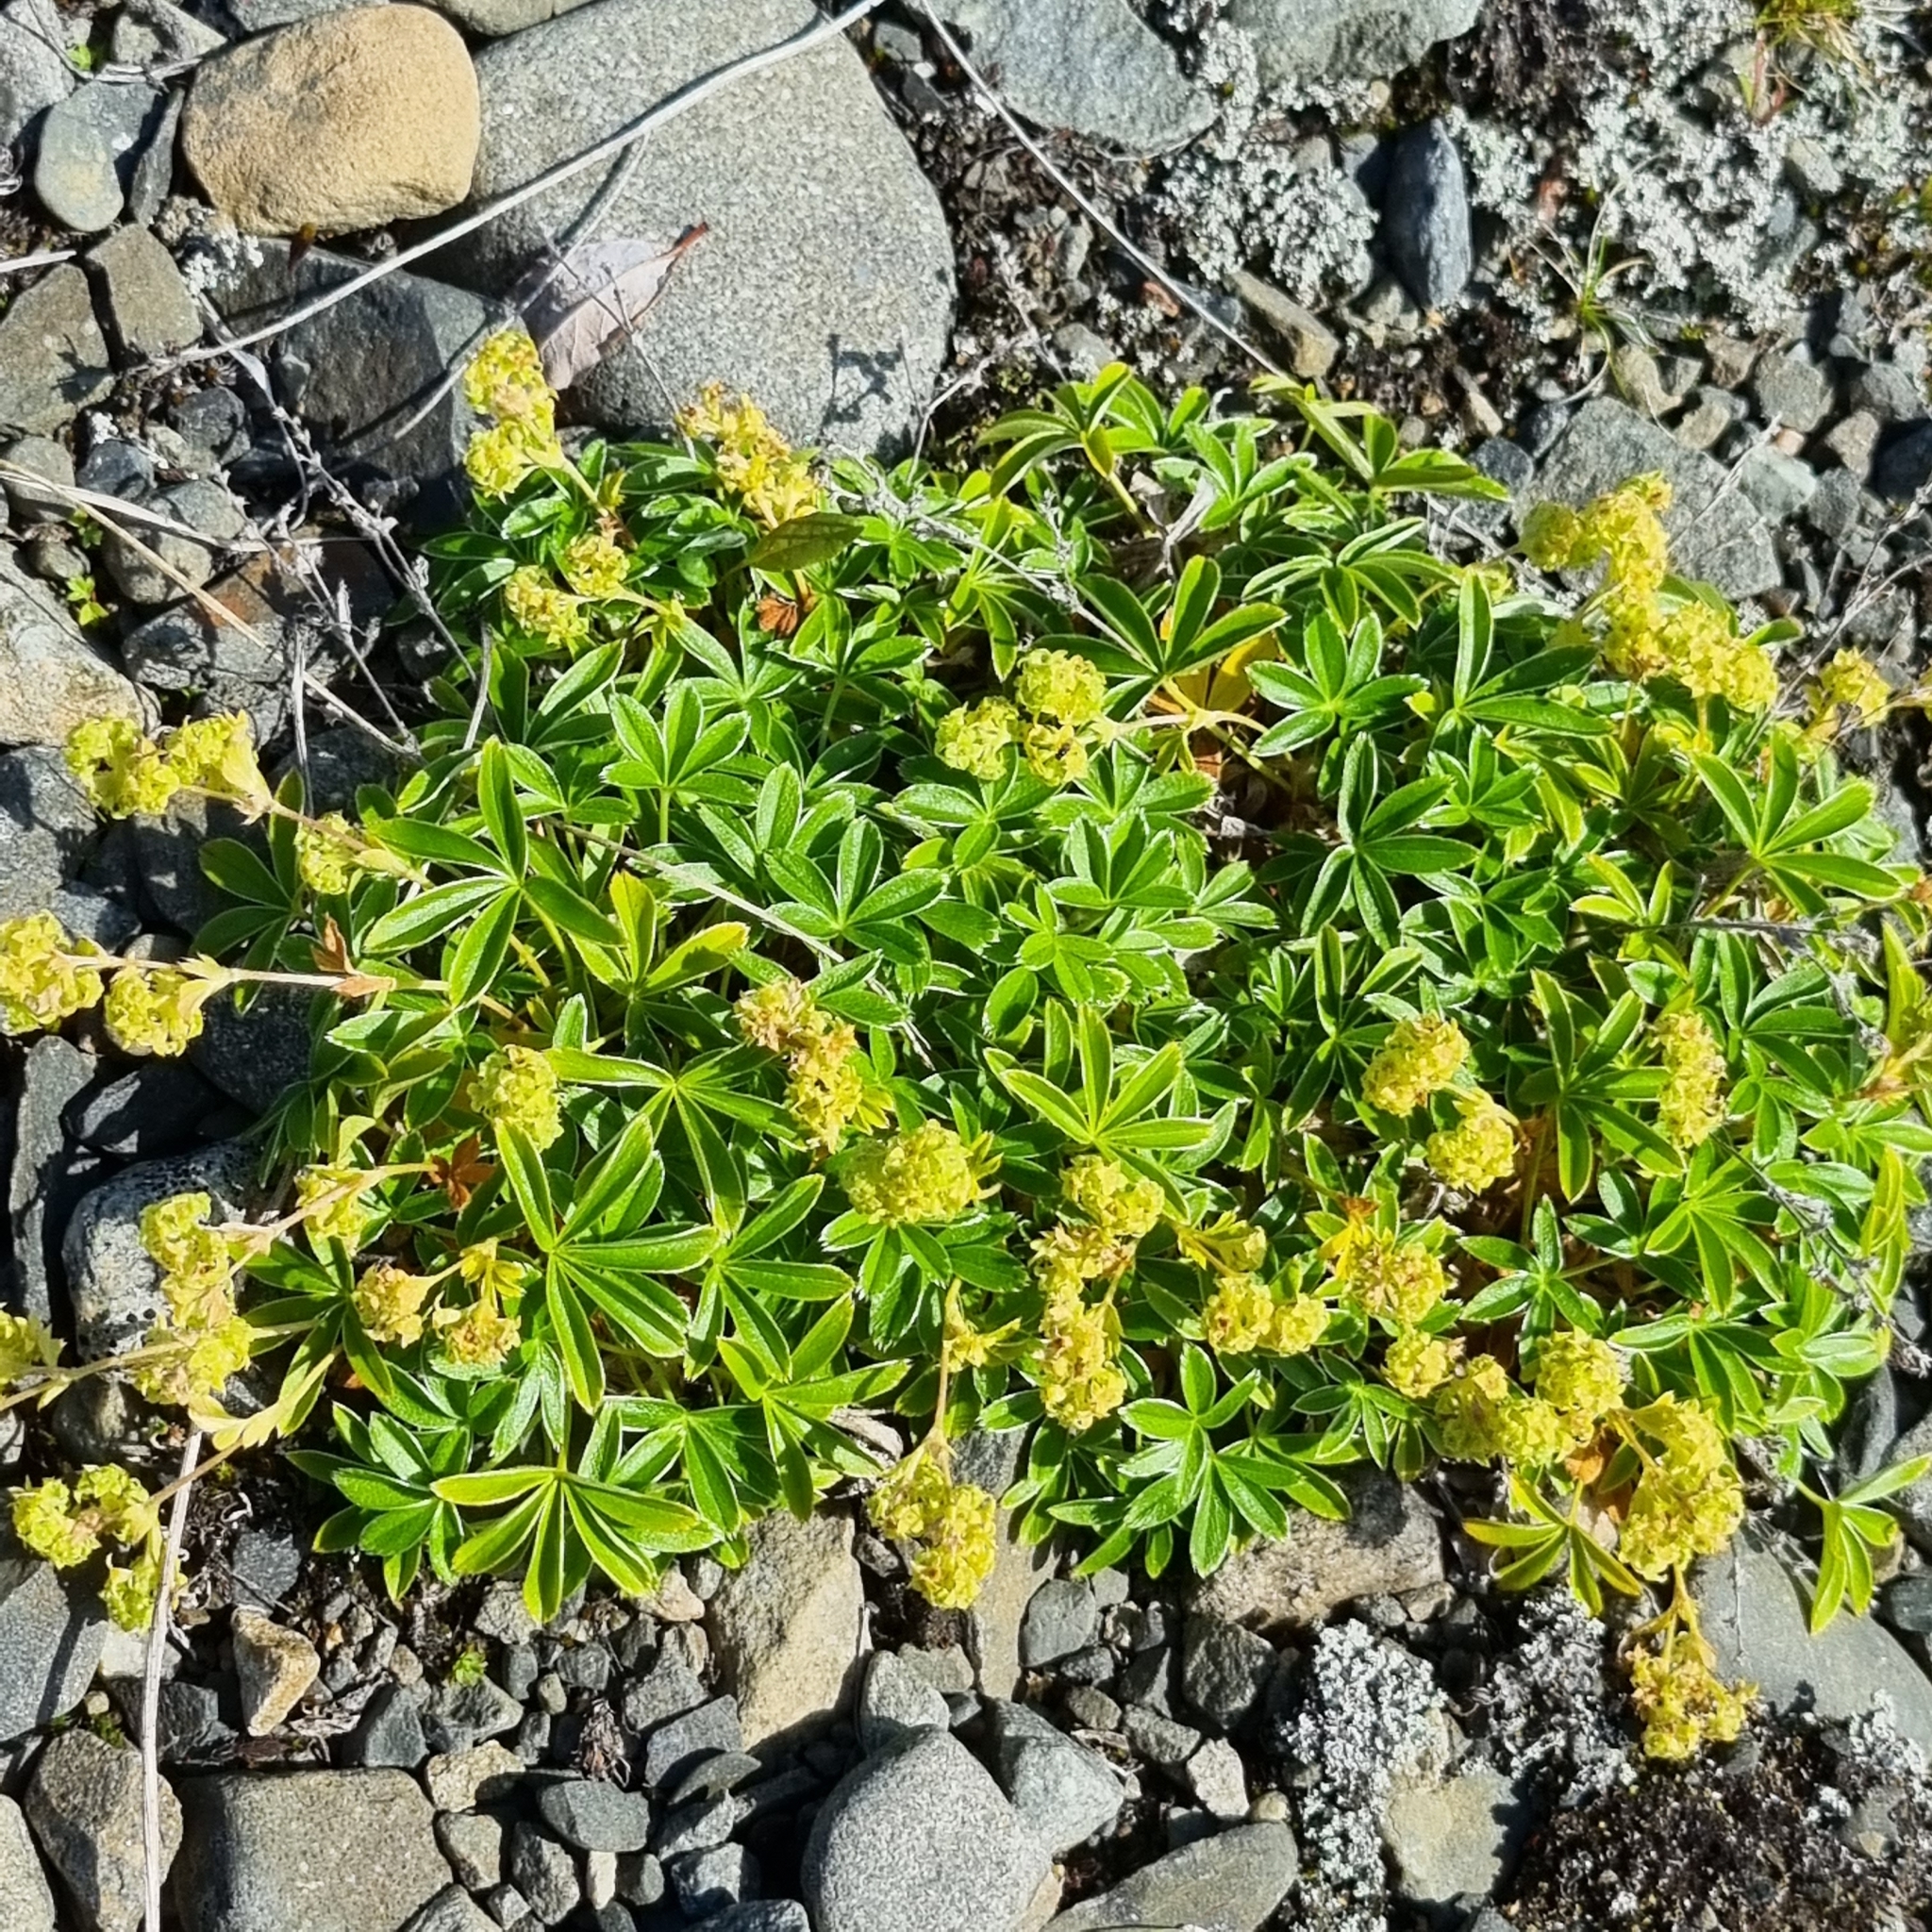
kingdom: Plantae
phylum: Tracheophyta
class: Magnoliopsida
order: Rosales
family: Rosaceae
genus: Alchemilla
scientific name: Alchemilla alpina
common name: Alpine lady's-mantle
